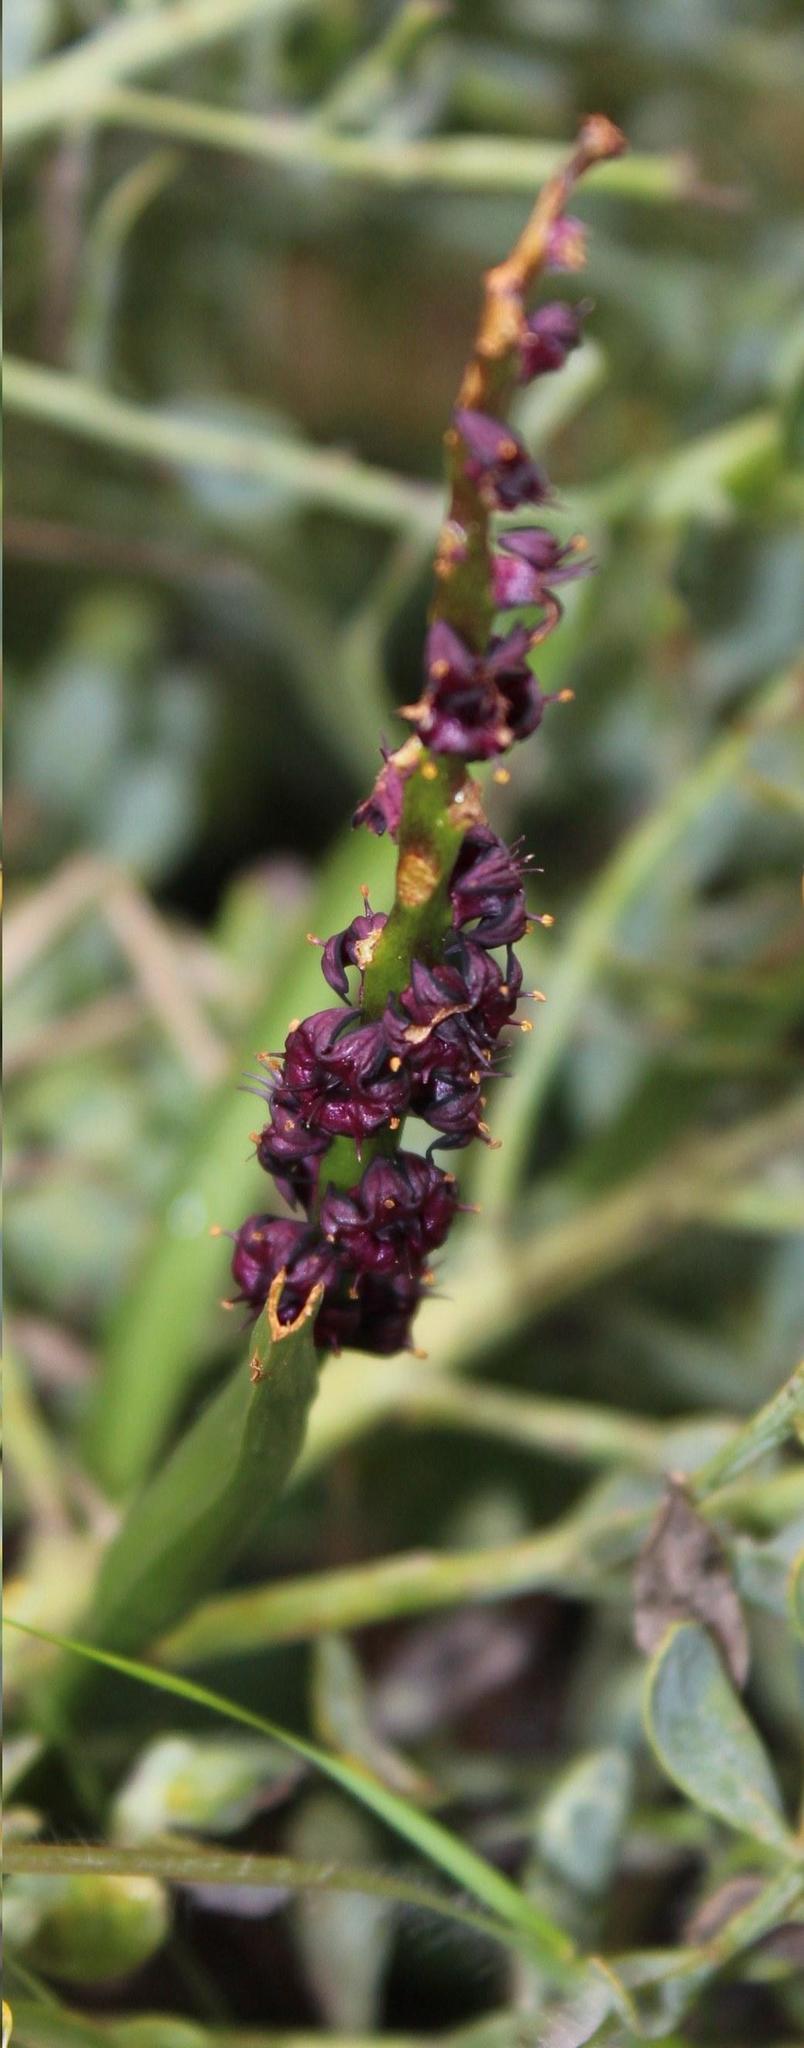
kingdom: Plantae
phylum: Tracheophyta
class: Liliopsida
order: Liliales
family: Colchicaceae
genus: Wurmbea
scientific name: Wurmbea recurva
